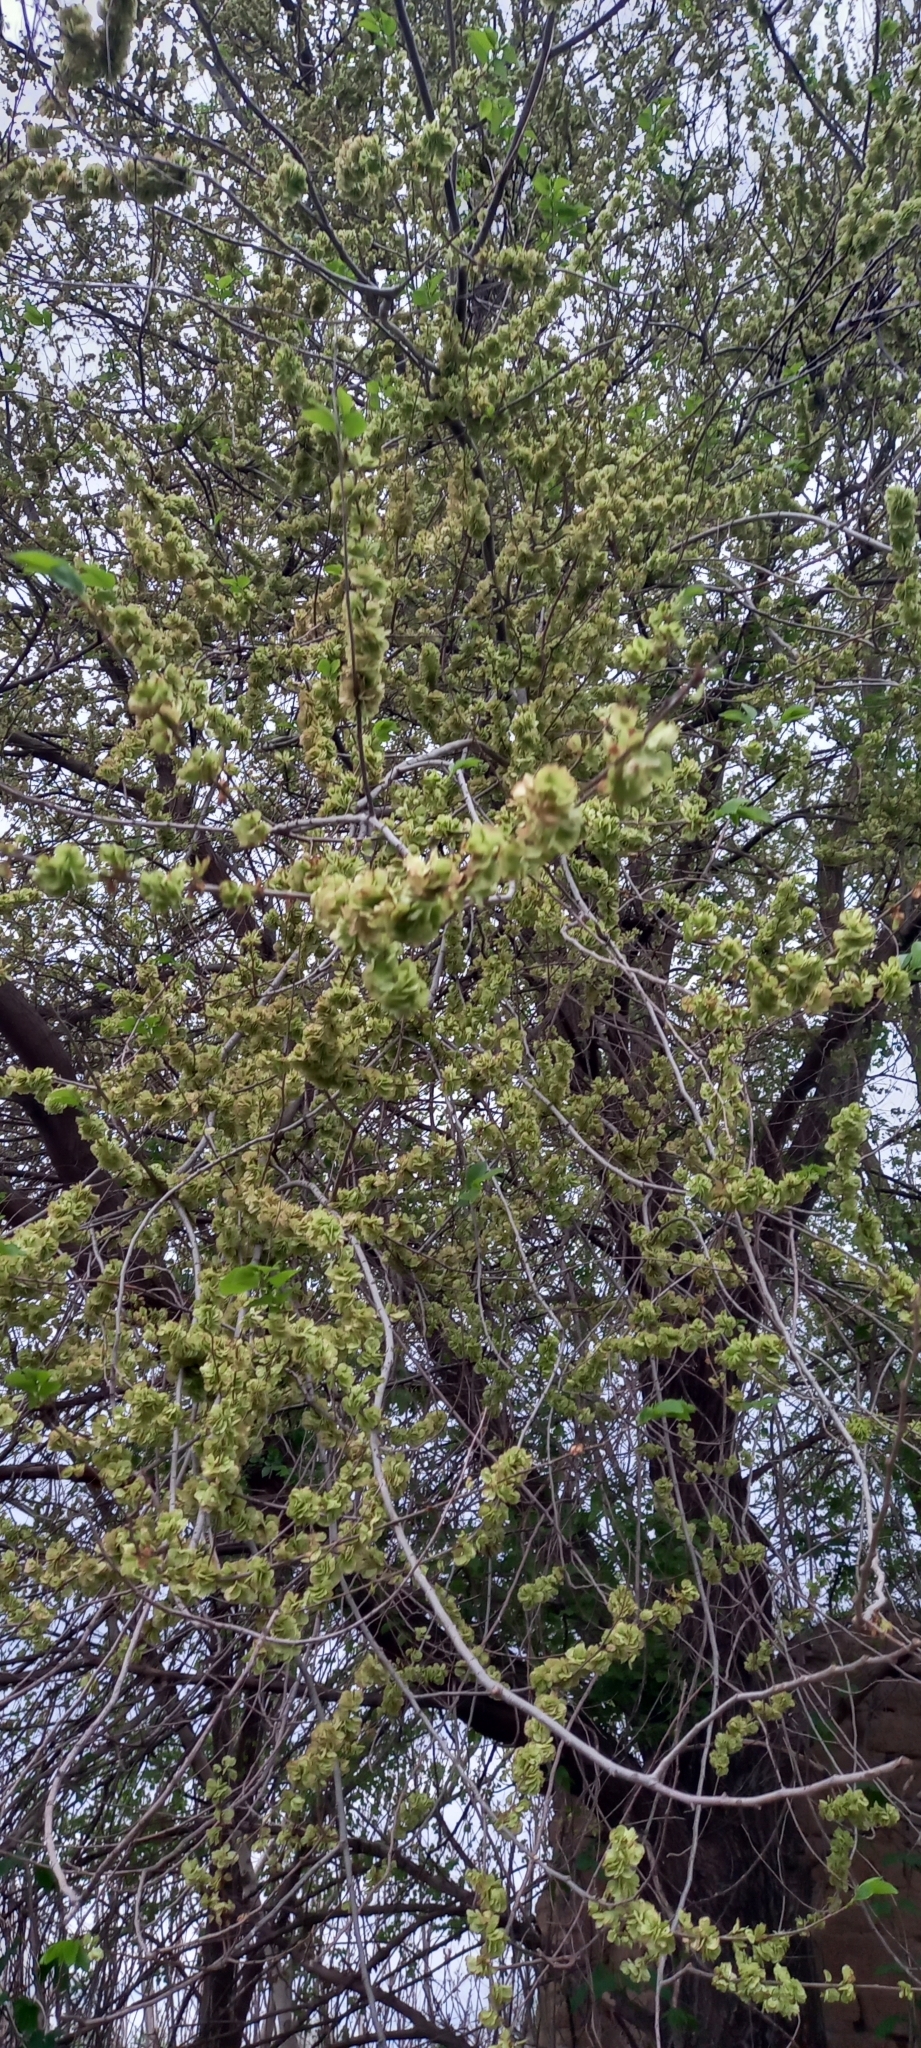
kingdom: Plantae
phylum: Tracheophyta
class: Magnoliopsida
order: Rosales
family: Ulmaceae
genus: Ulmus
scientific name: Ulmus pumila
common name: Siberian elm
